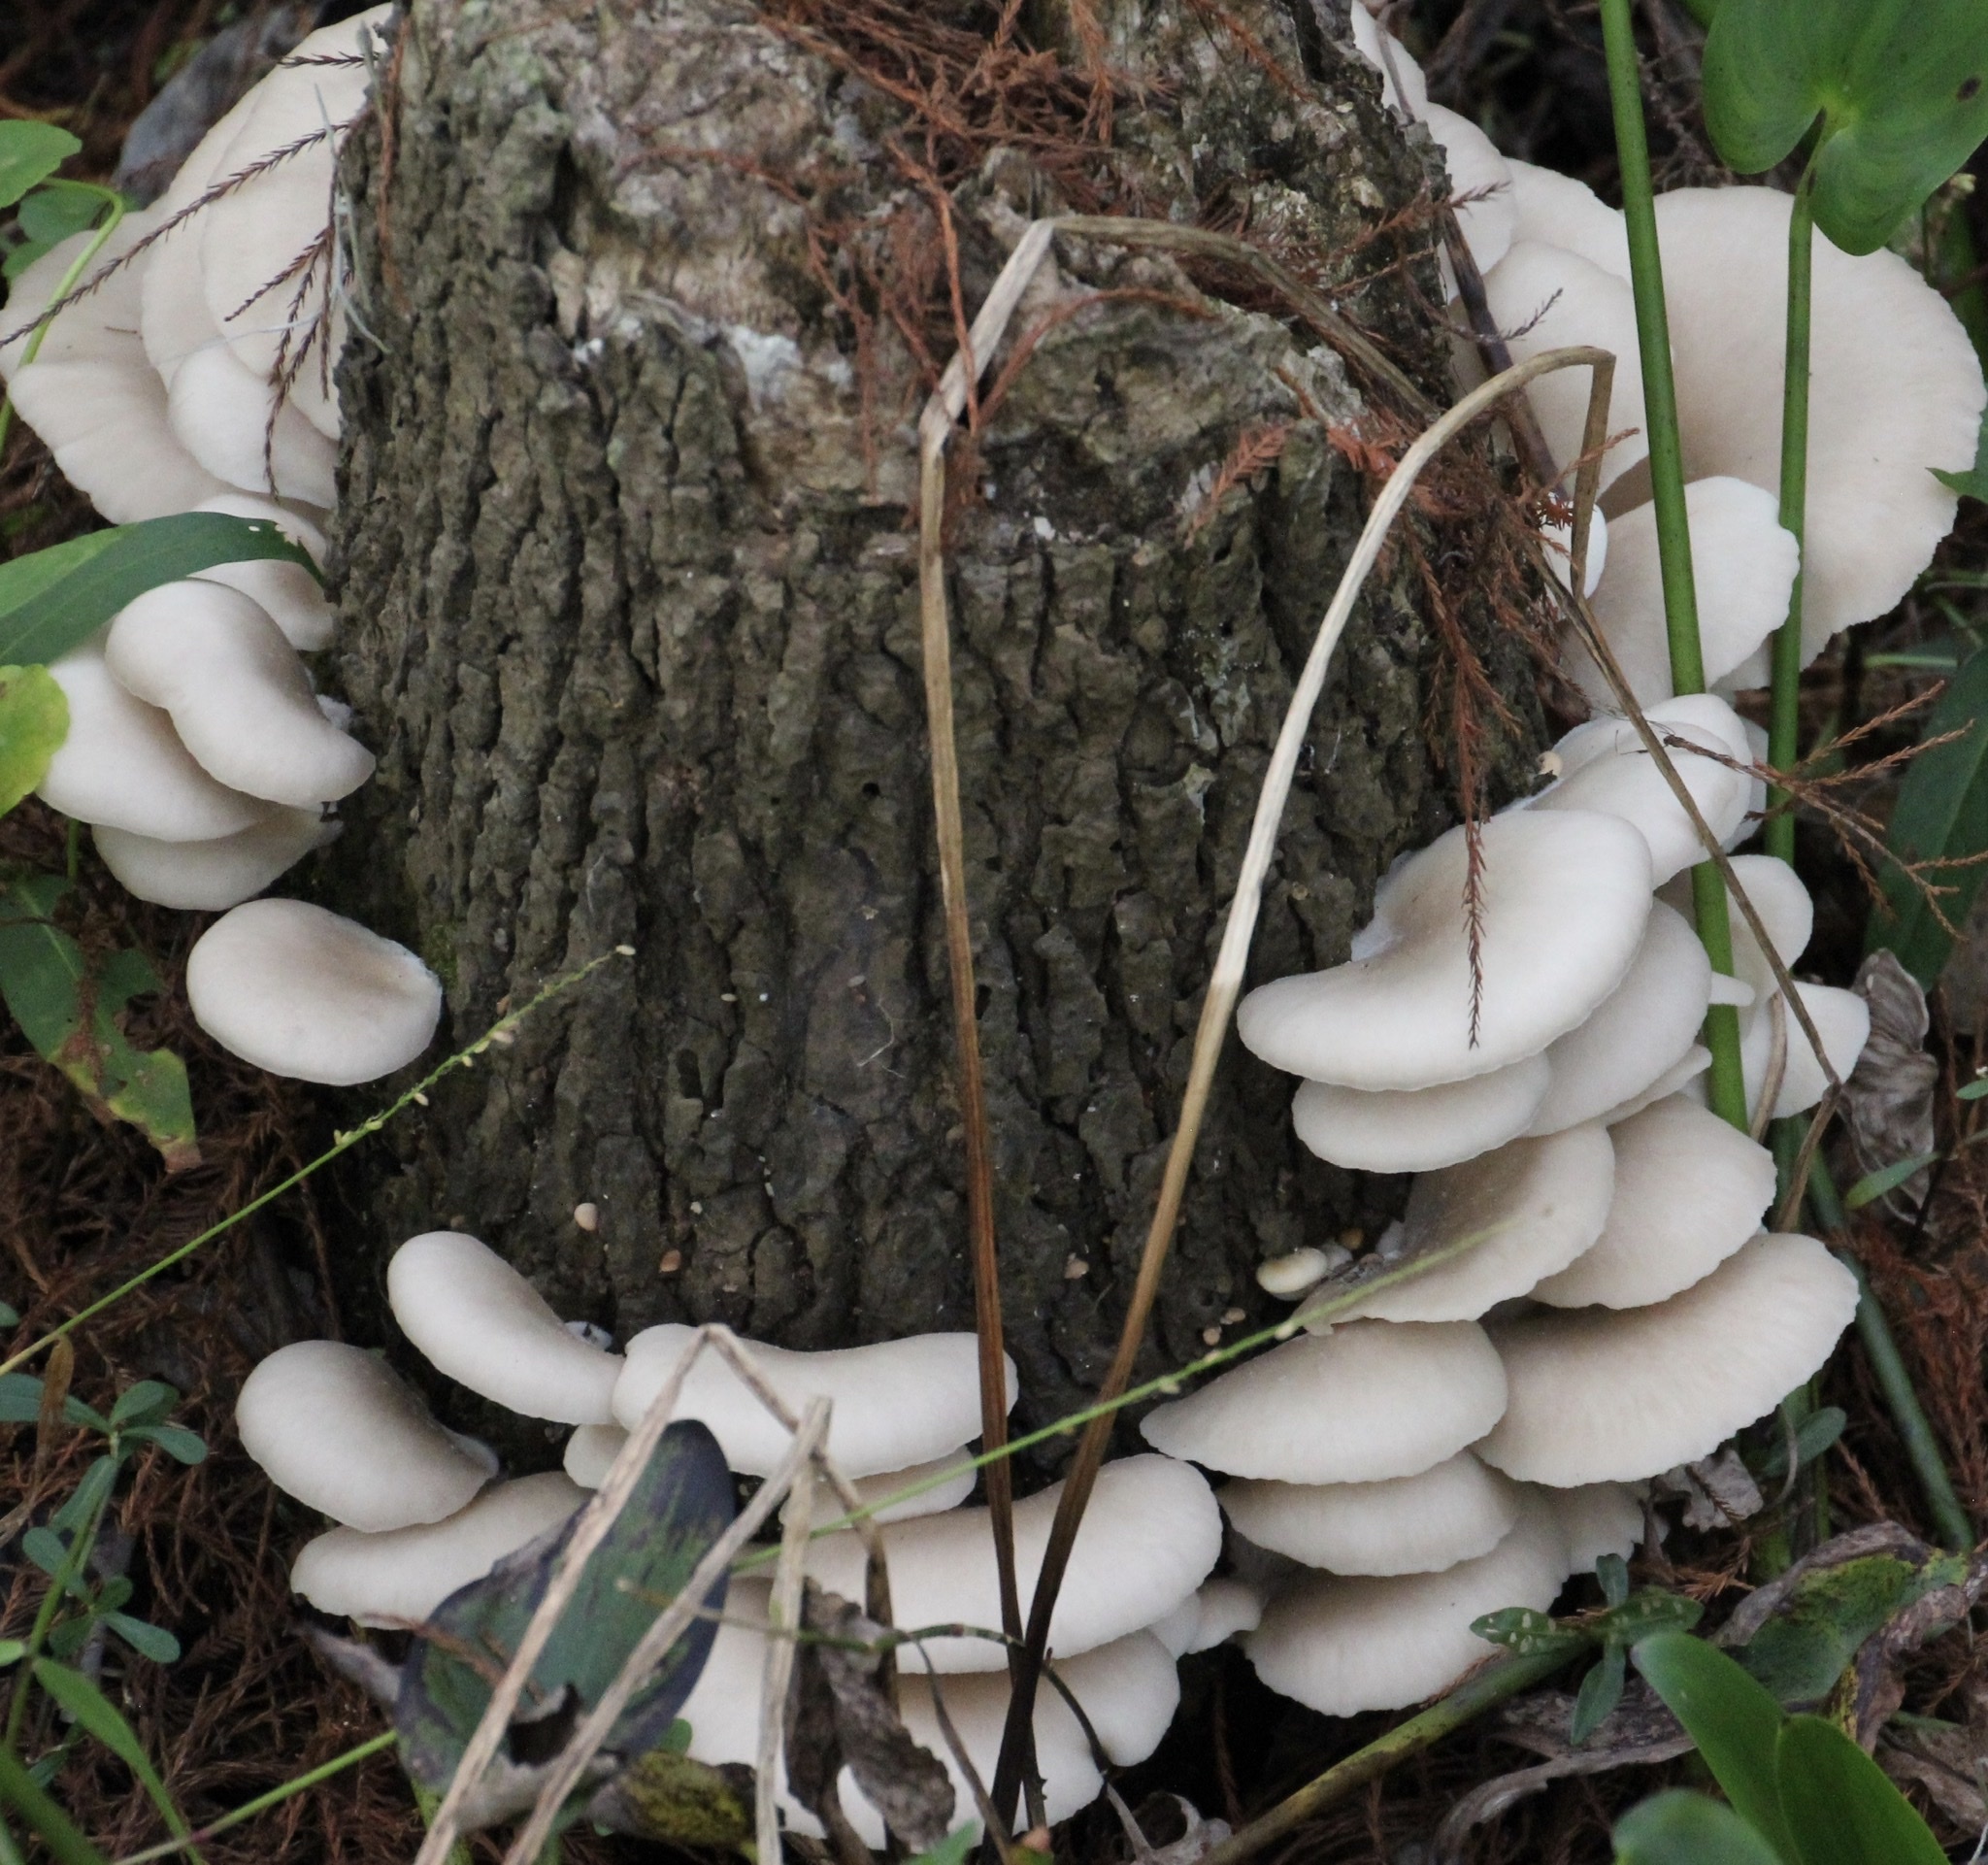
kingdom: Fungi
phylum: Basidiomycota
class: Agaricomycetes
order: Agaricales
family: Pleurotaceae
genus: Pleurotus
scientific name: Pleurotus ostreatus
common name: Oyster mushroom
